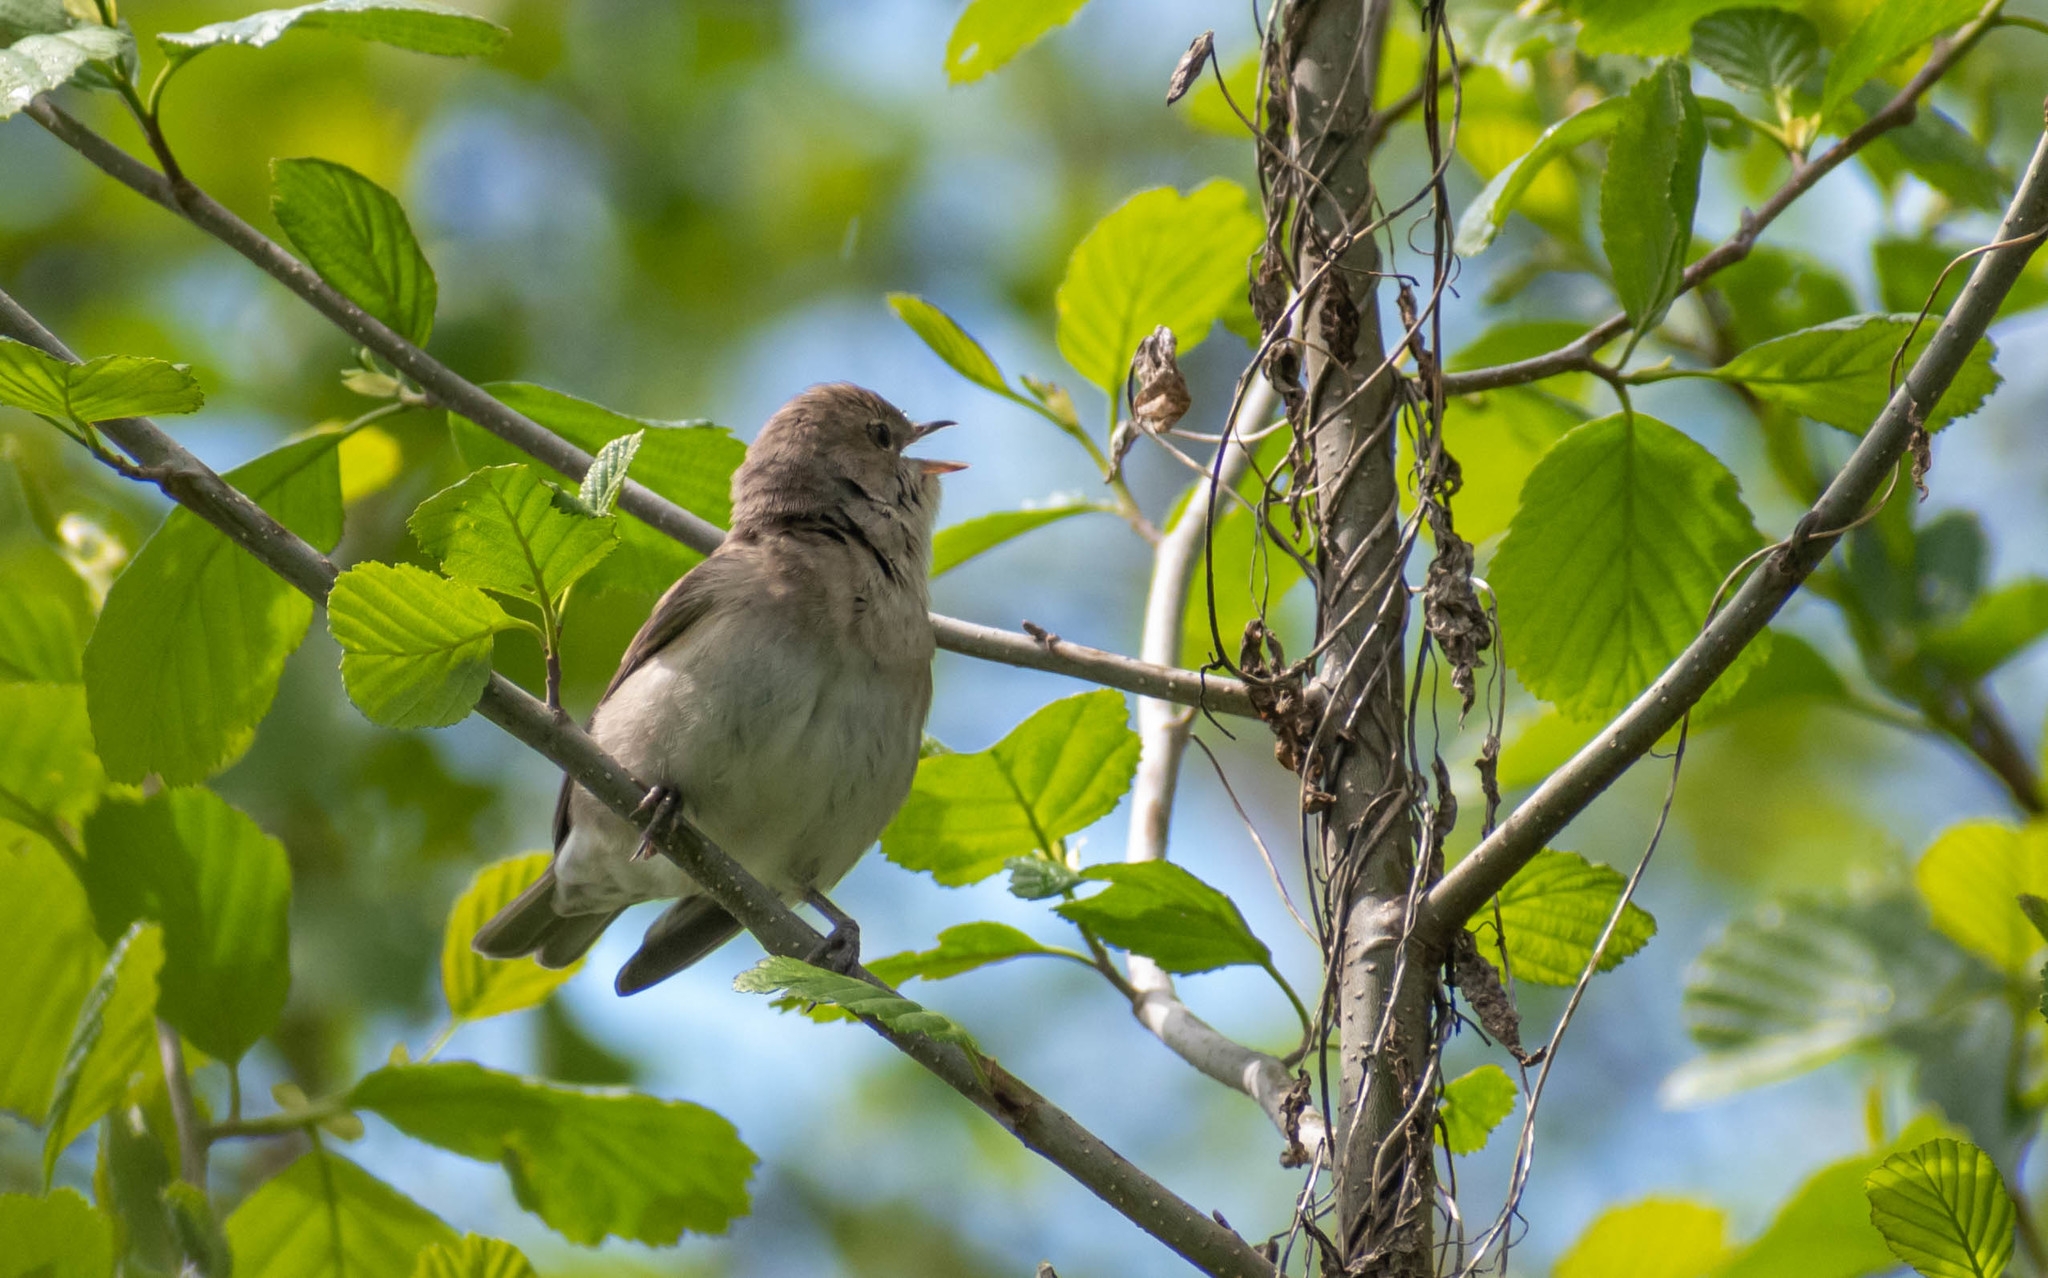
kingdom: Animalia
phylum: Chordata
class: Aves
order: Passeriformes
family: Sylviidae
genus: Sylvia
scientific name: Sylvia borin
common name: Garden warbler
